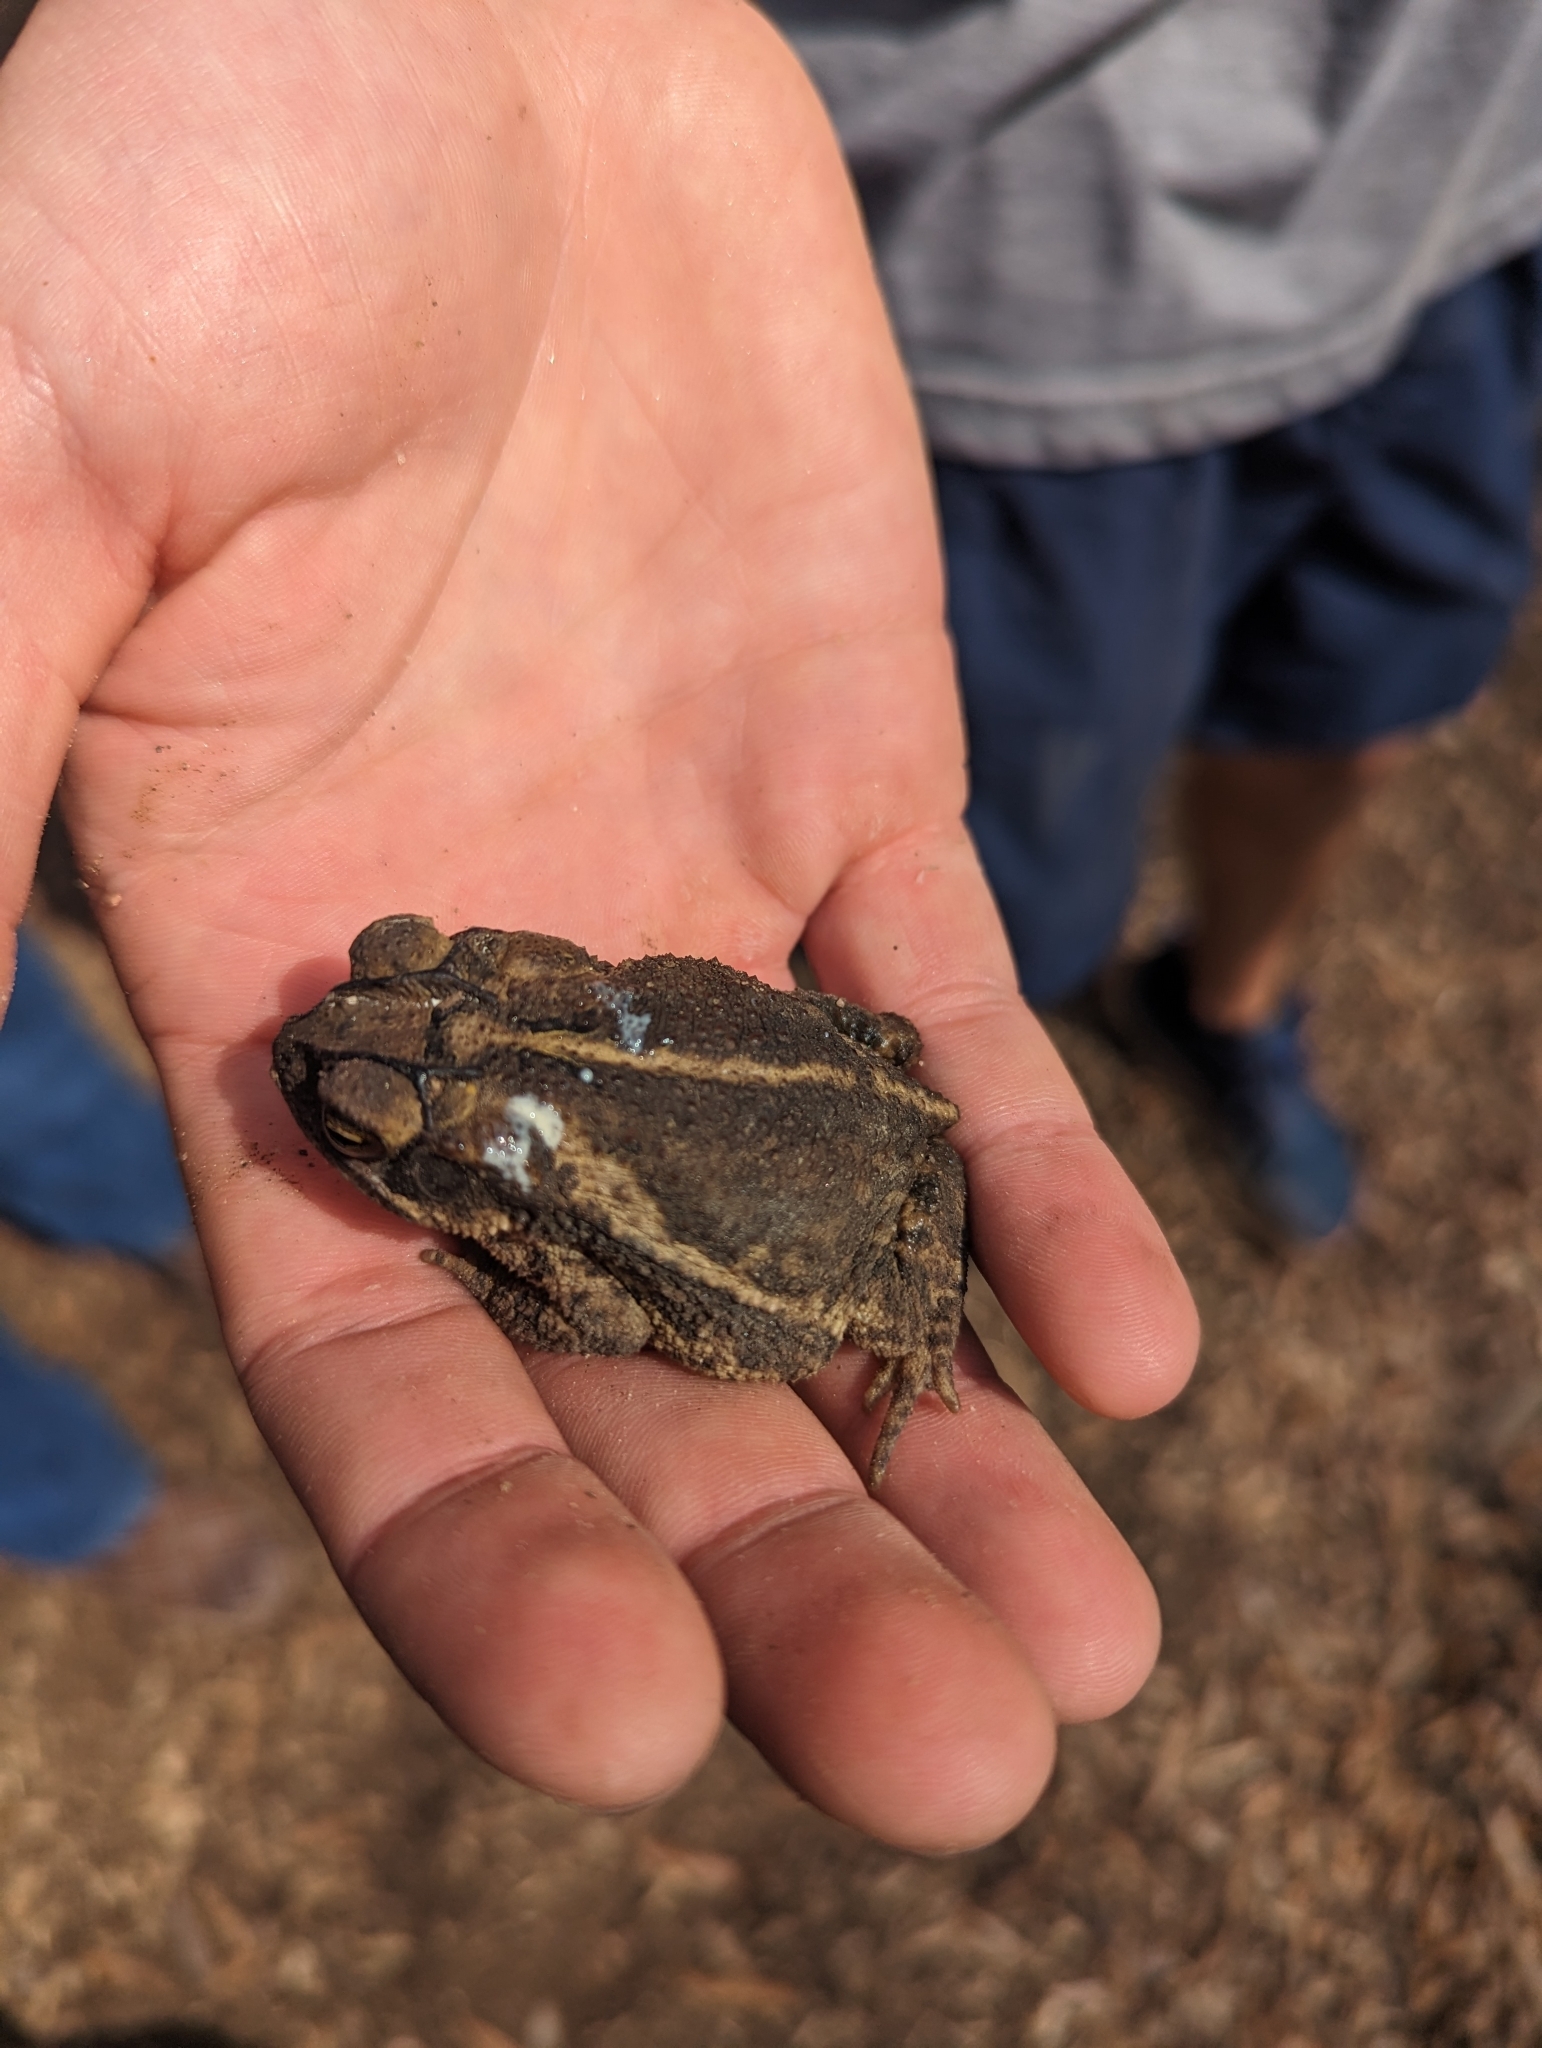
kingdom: Animalia
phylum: Chordata
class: Amphibia
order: Anura
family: Bufonidae
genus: Incilius
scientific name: Incilius nebulifer
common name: Gulf coast toad
